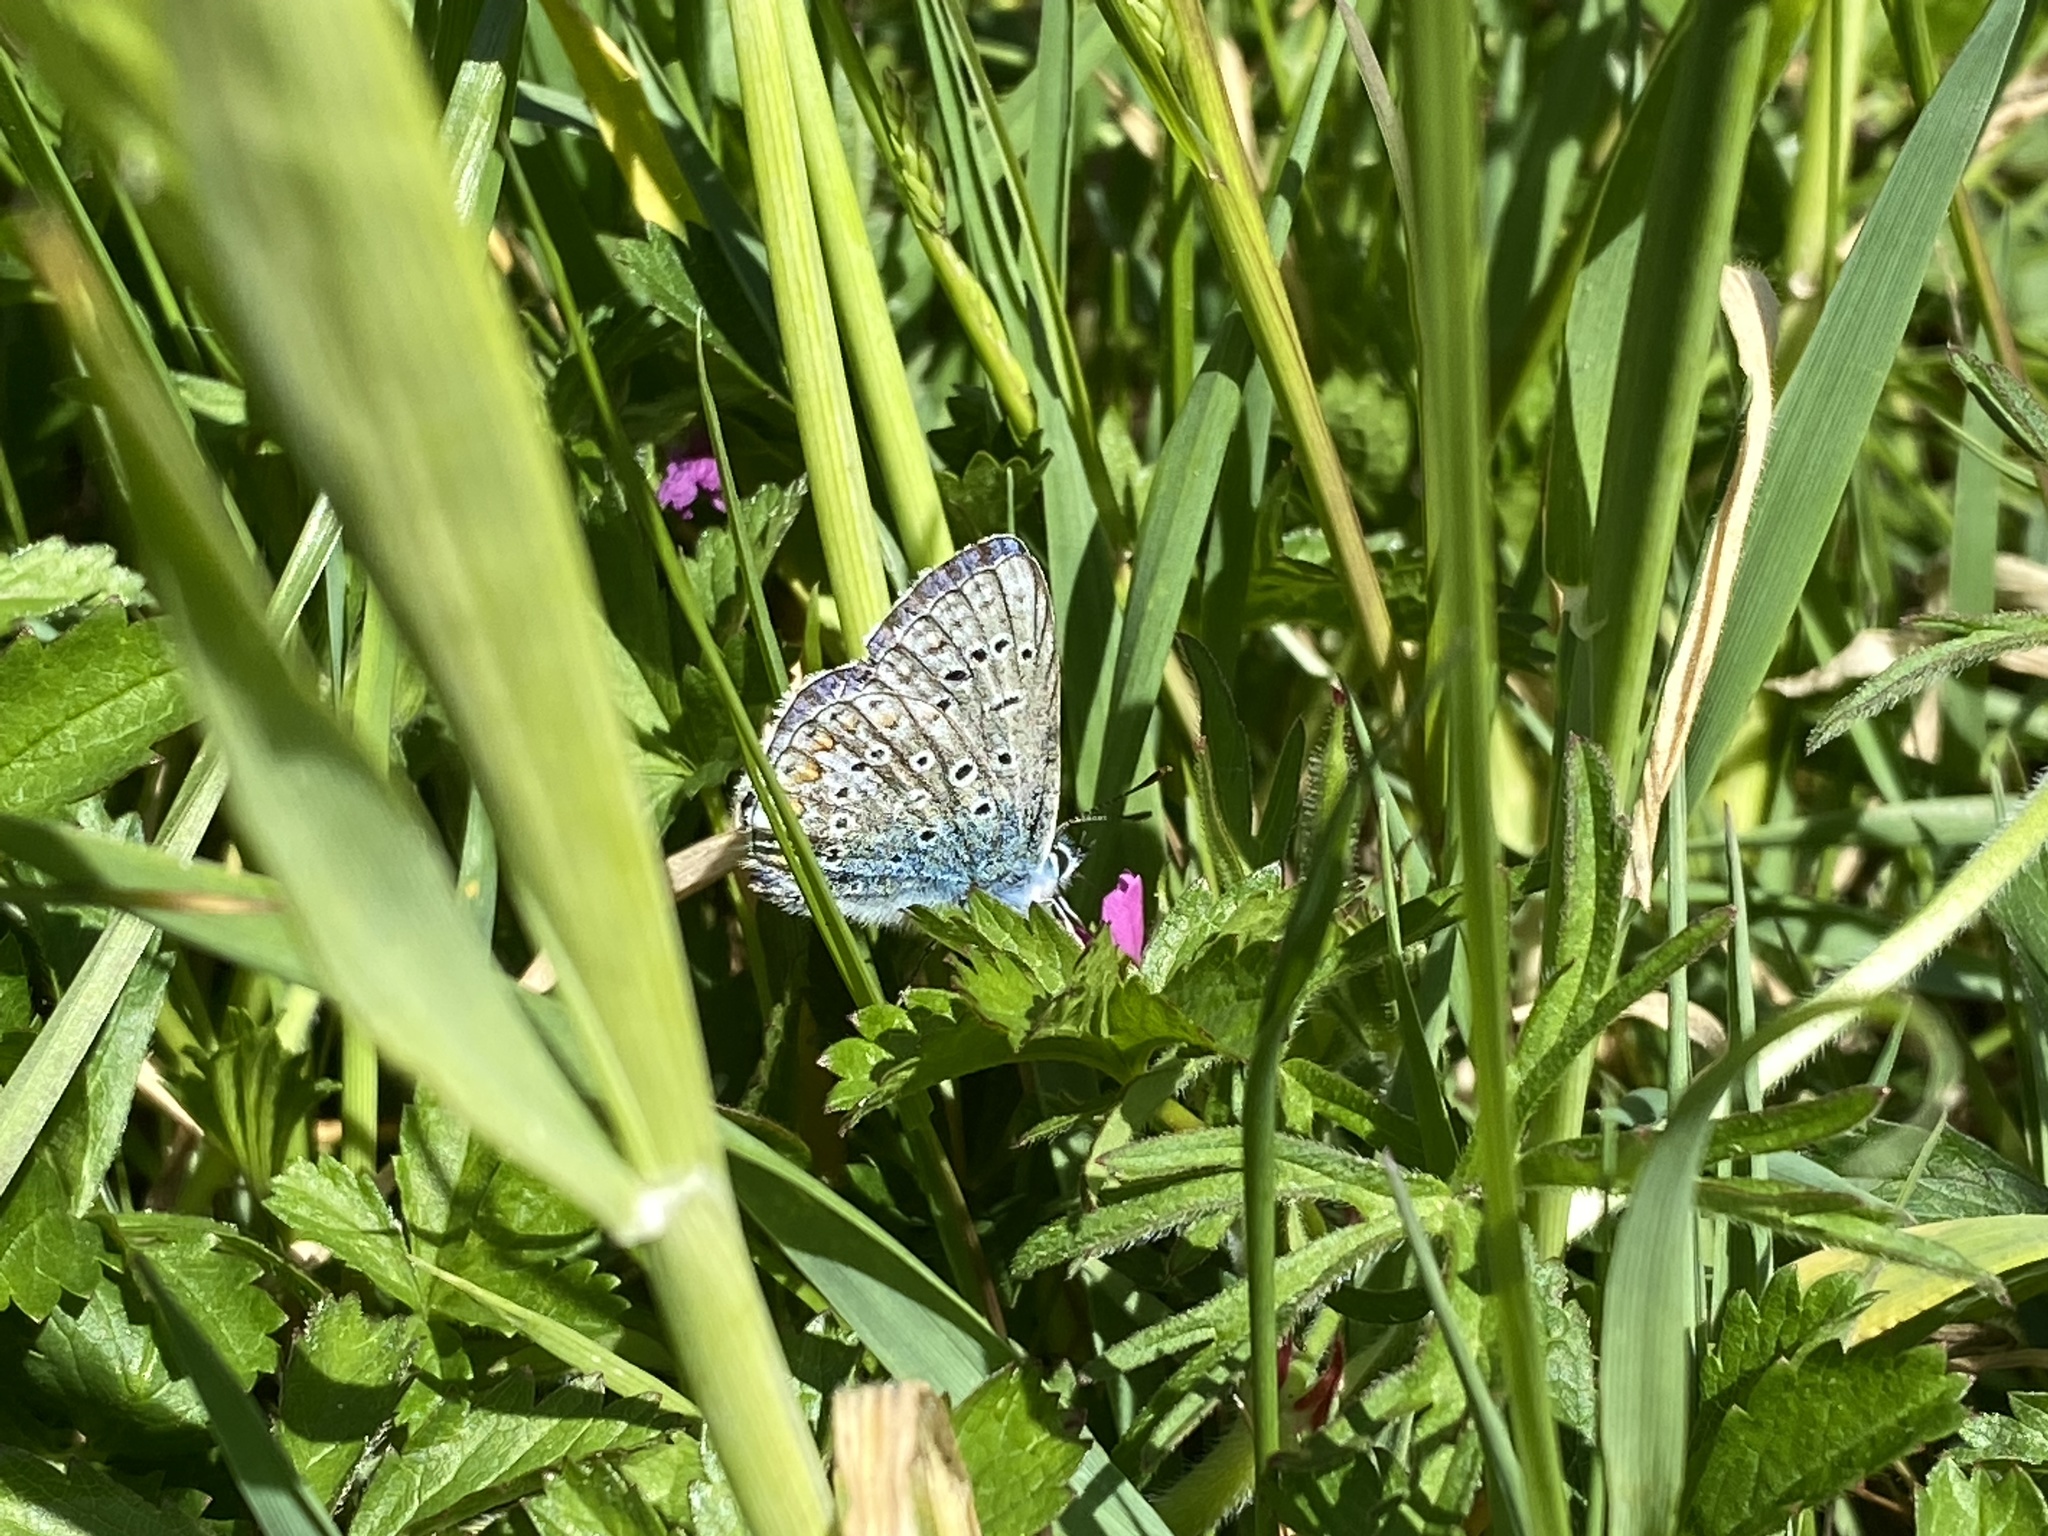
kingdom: Animalia
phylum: Arthropoda
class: Insecta
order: Lepidoptera
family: Lycaenidae
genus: Polyommatus
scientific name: Polyommatus icarus
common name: Common blue
